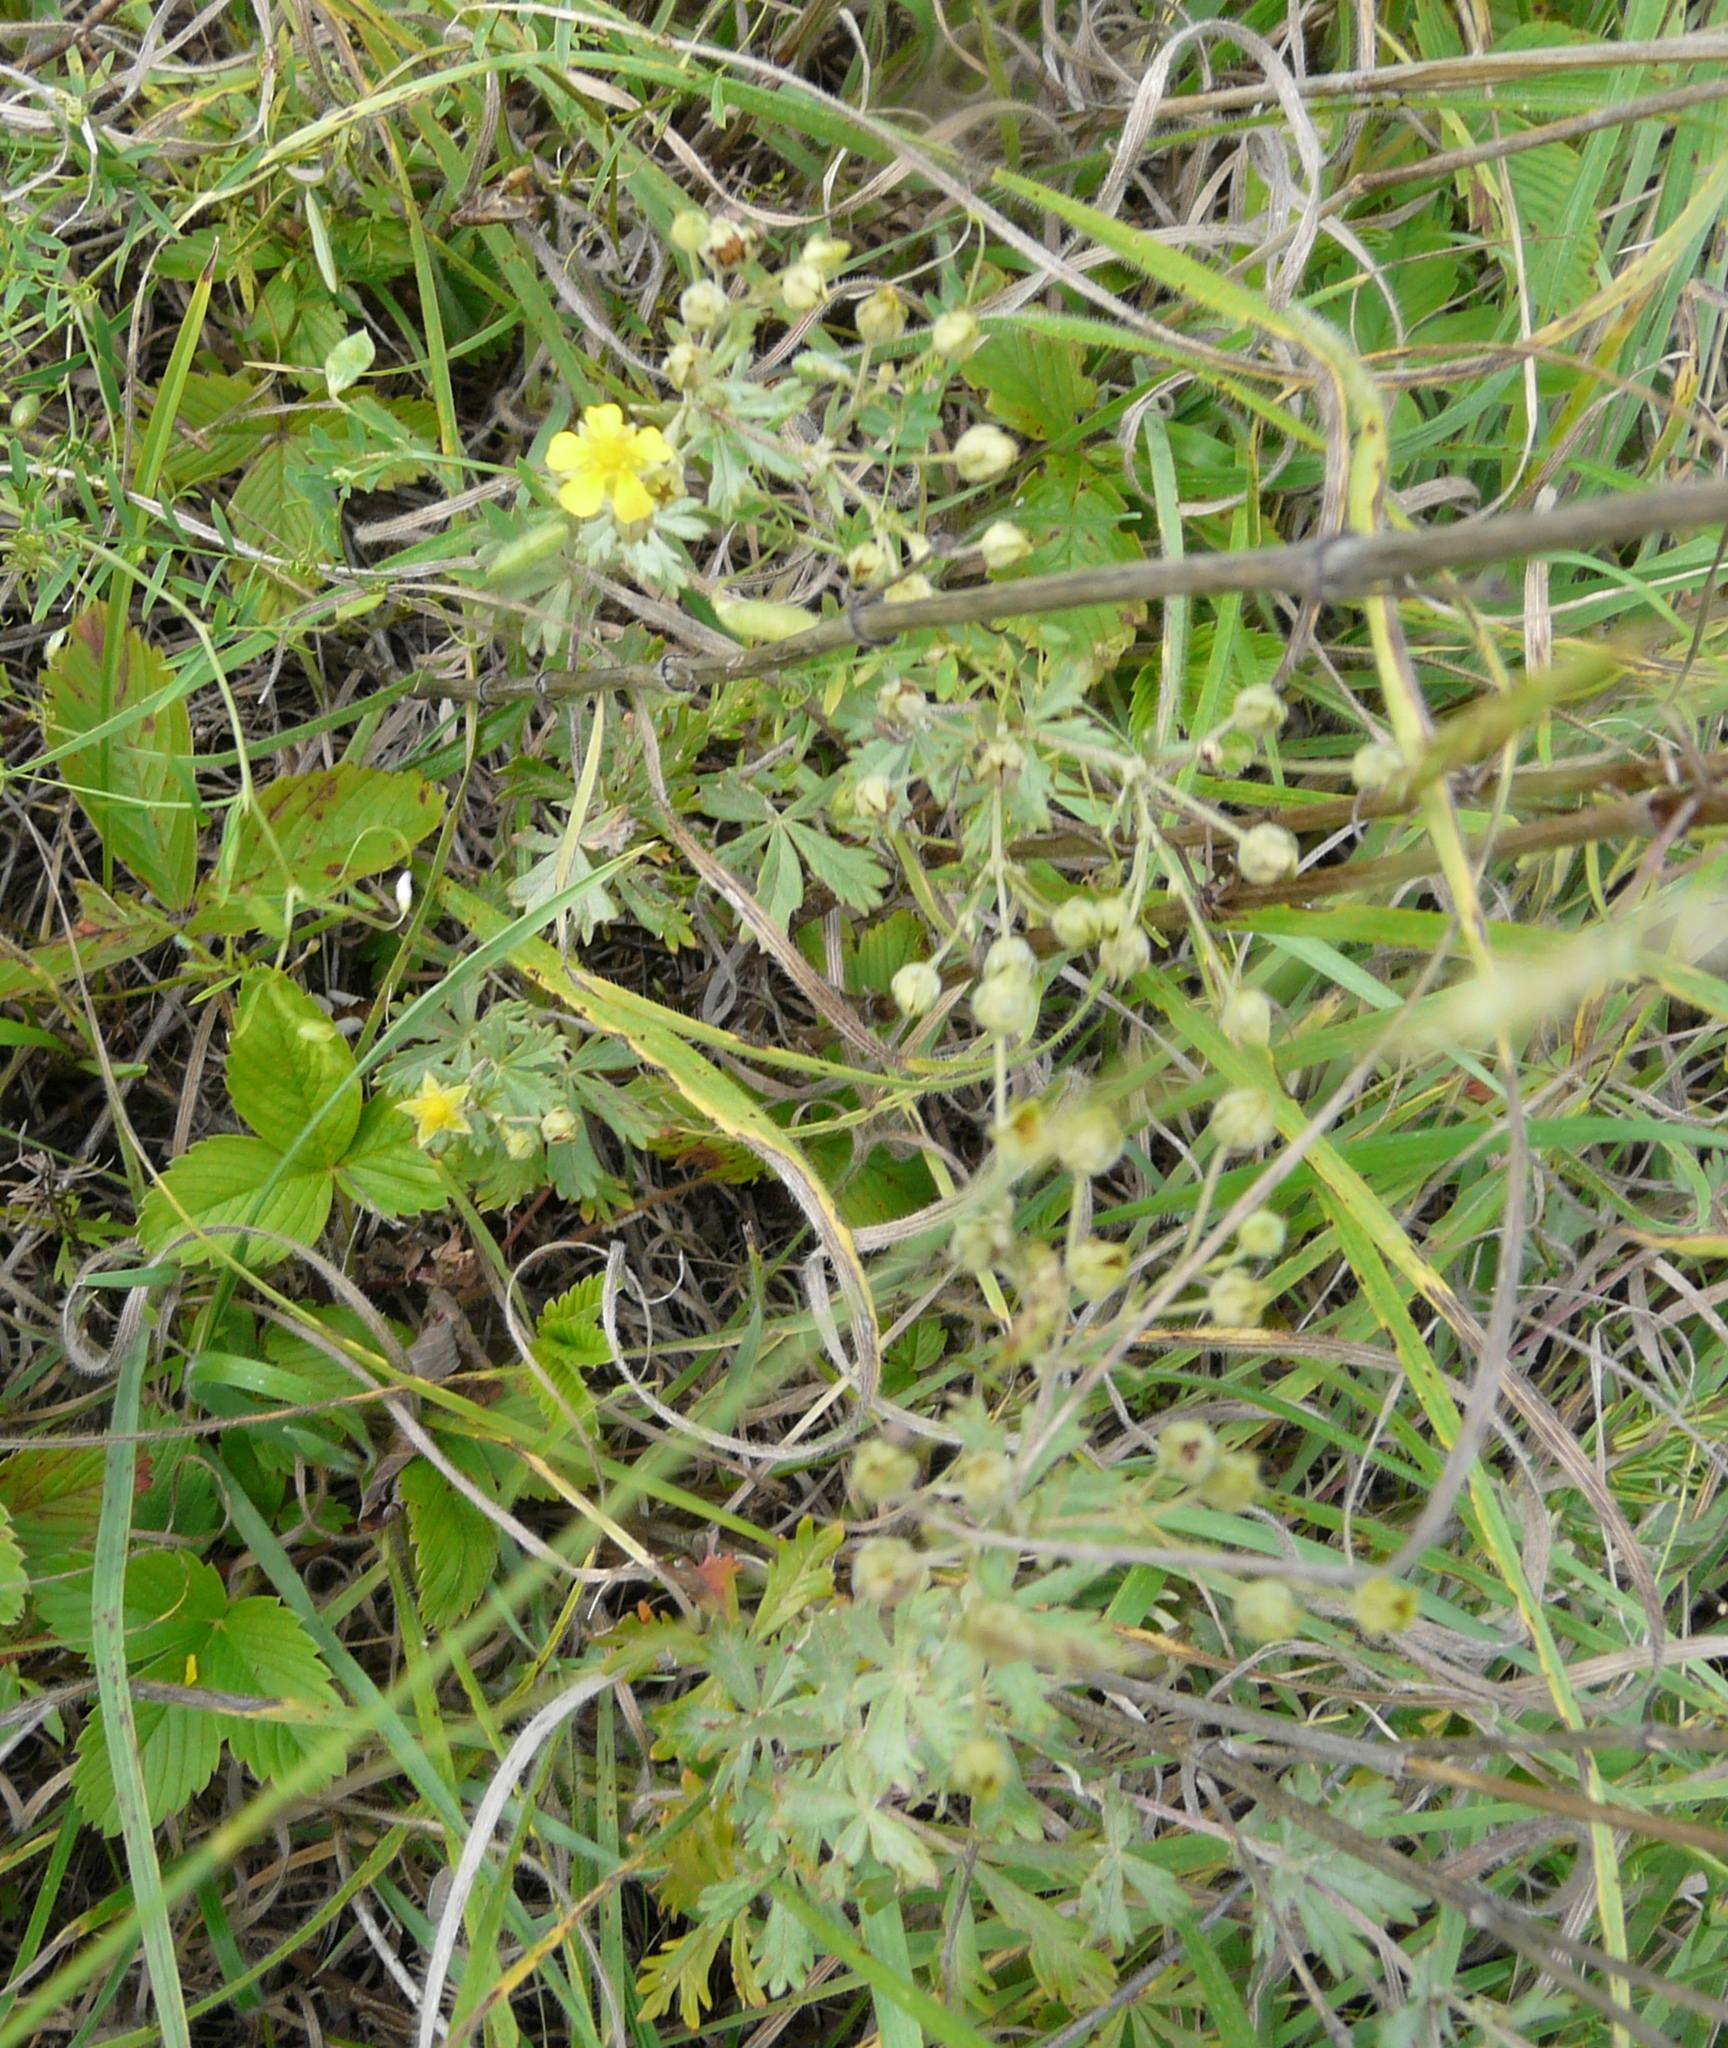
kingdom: Plantae
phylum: Tracheophyta
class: Magnoliopsida
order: Rosales
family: Rosaceae
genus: Potentilla
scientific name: Potentilla argentea
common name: Hoary cinquefoil
